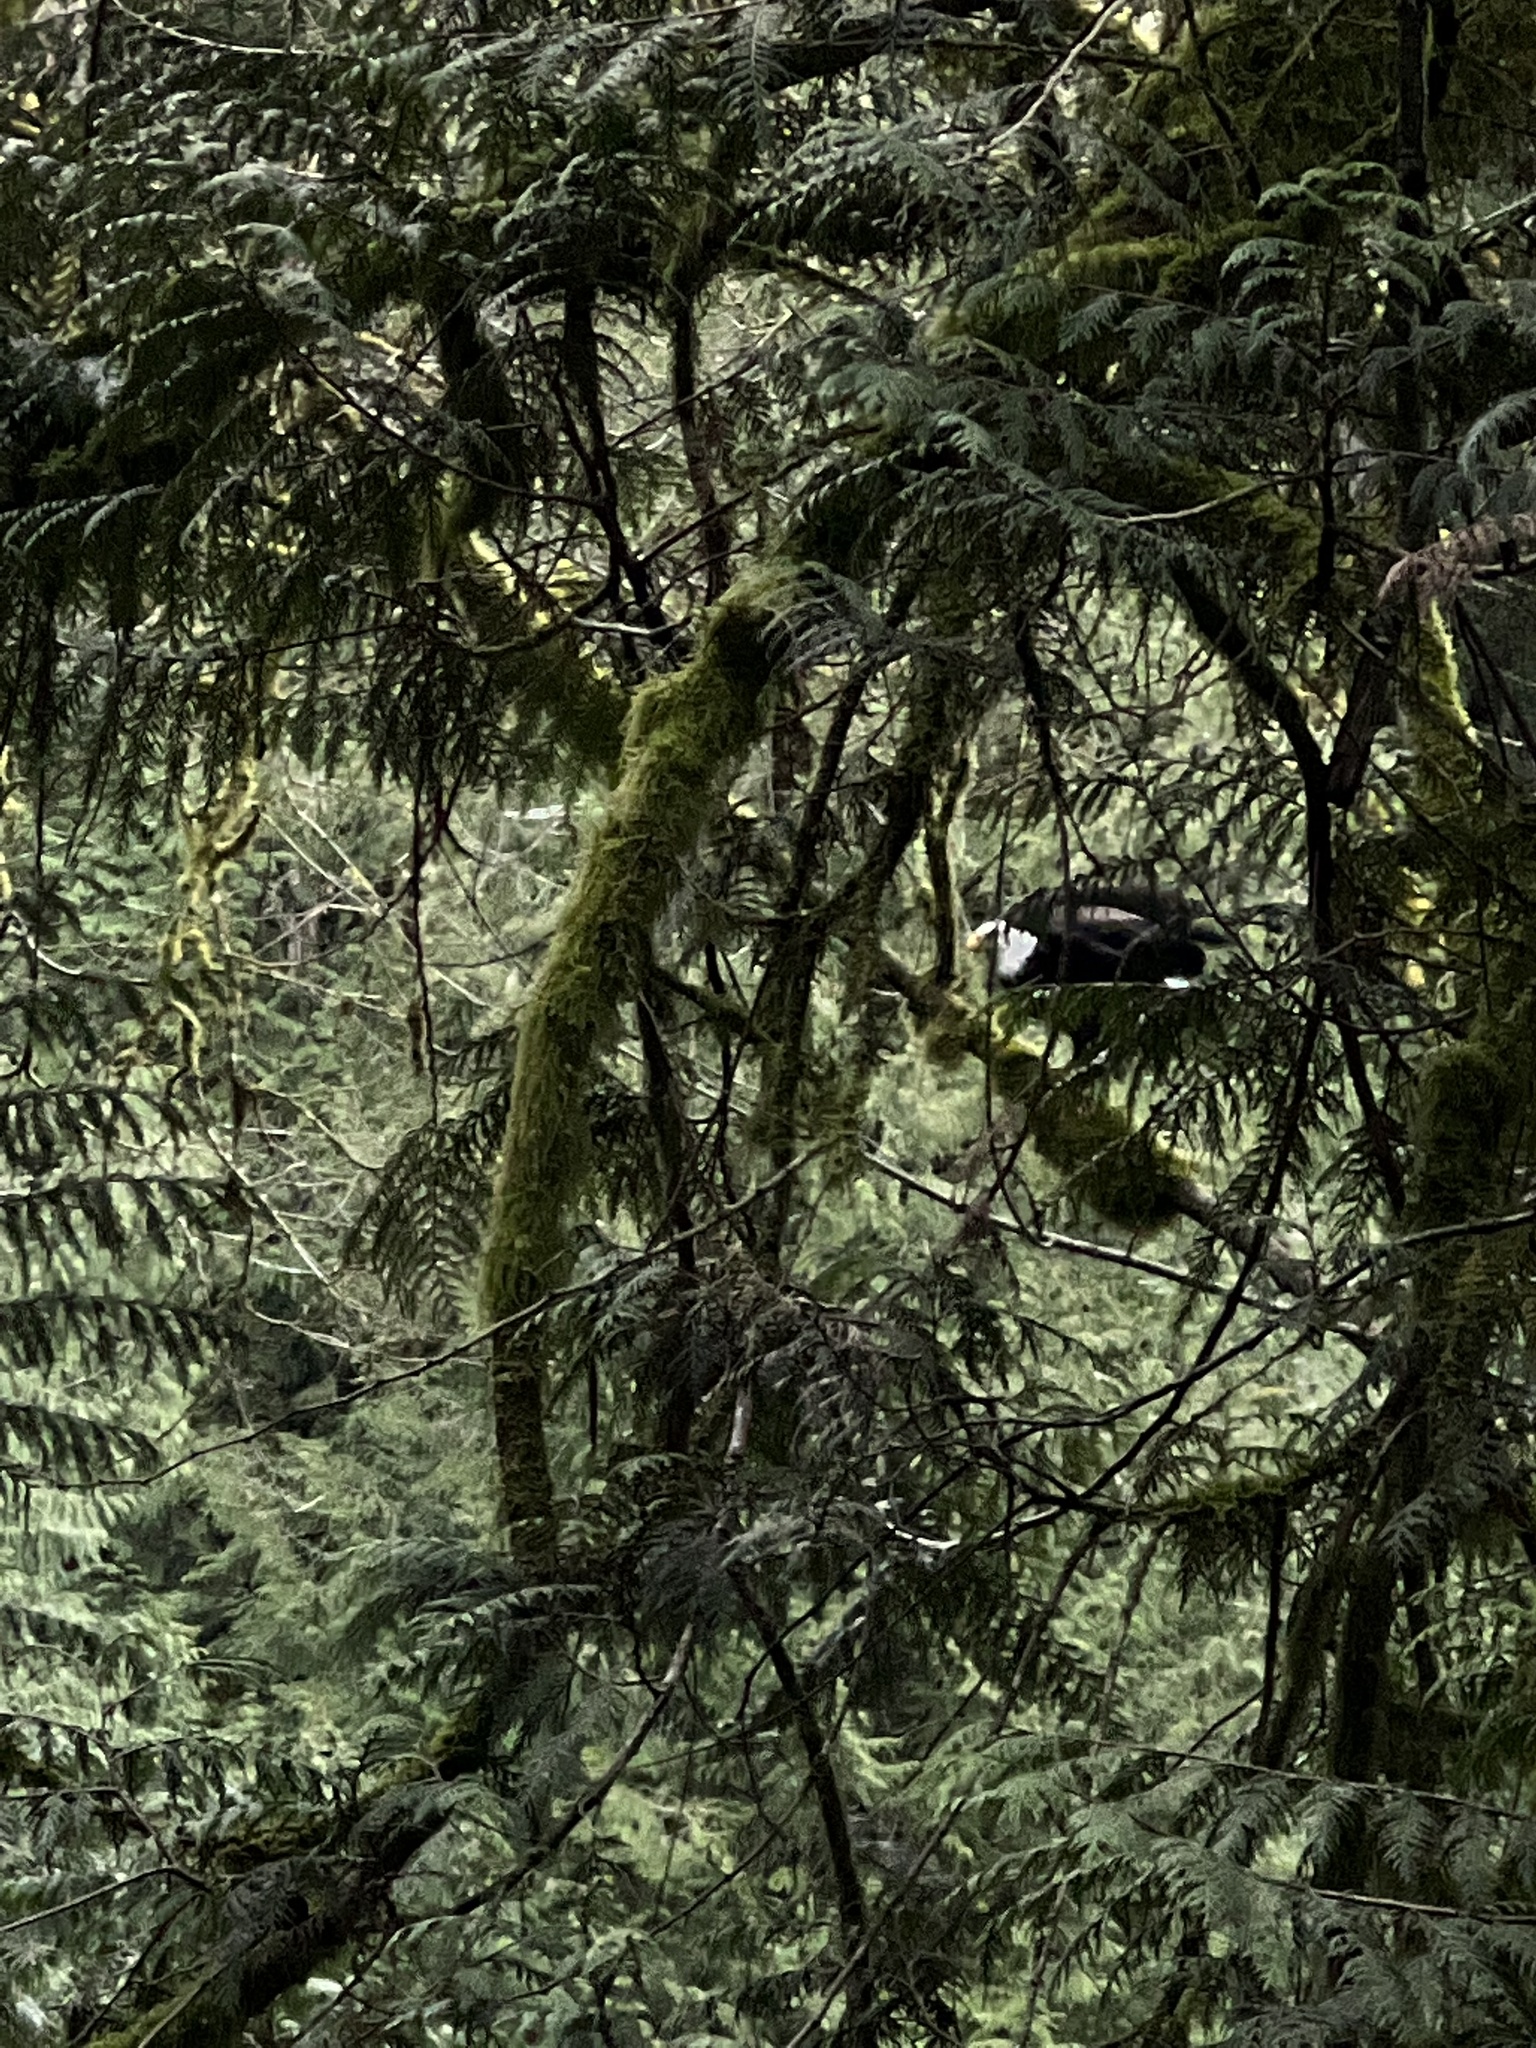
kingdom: Animalia
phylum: Chordata
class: Aves
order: Accipitriformes
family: Accipitridae
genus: Haliaeetus
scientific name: Haliaeetus leucocephalus
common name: Bald eagle
